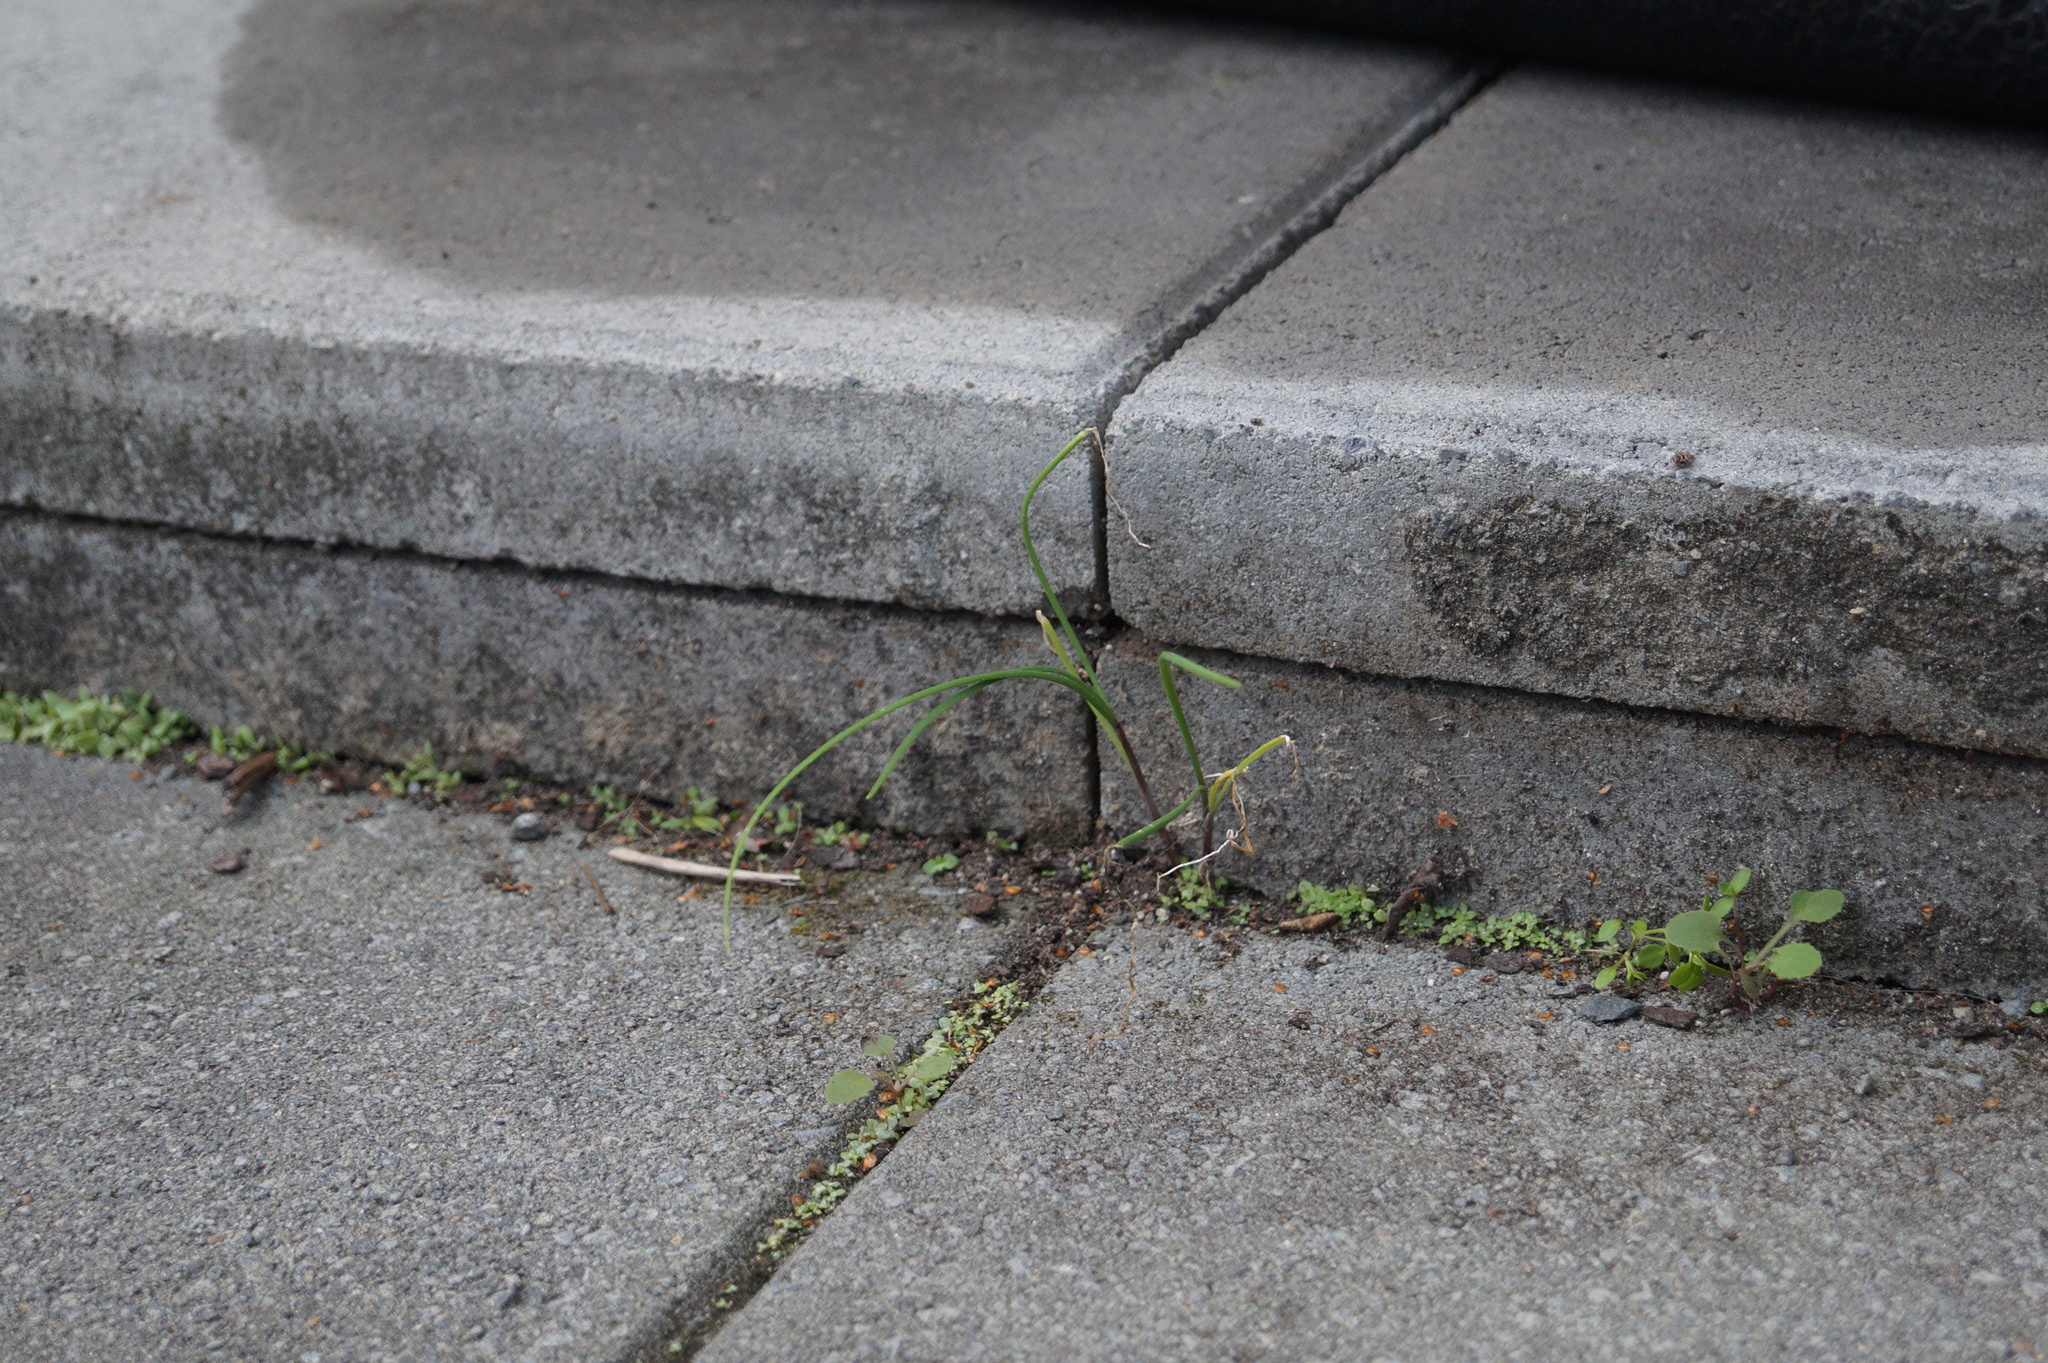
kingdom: Plantae
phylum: Tracheophyta
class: Liliopsida
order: Asparagales
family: Amaryllidaceae
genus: Allium
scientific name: Allium schoenoprasum
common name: Chives
